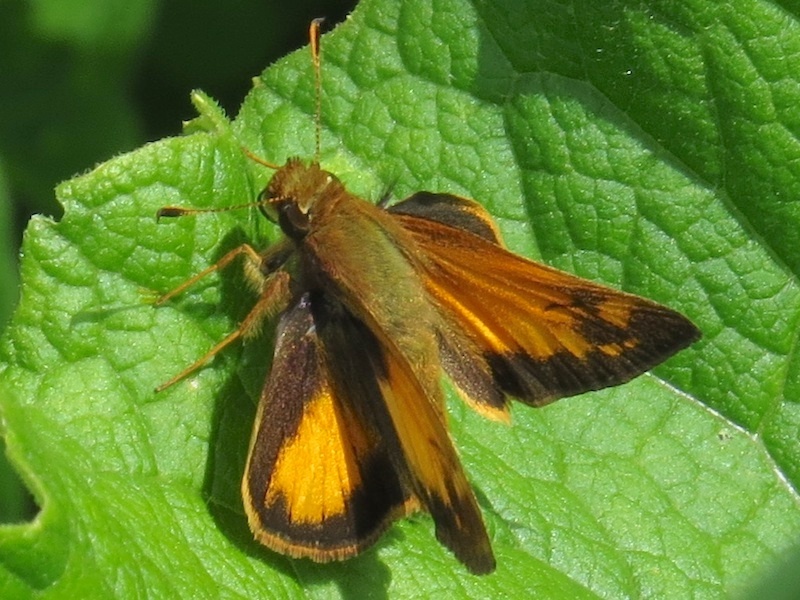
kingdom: Animalia
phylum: Arthropoda
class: Insecta
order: Lepidoptera
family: Hesperiidae
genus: Lon
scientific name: Lon zabulon
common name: Zabulon skipper
